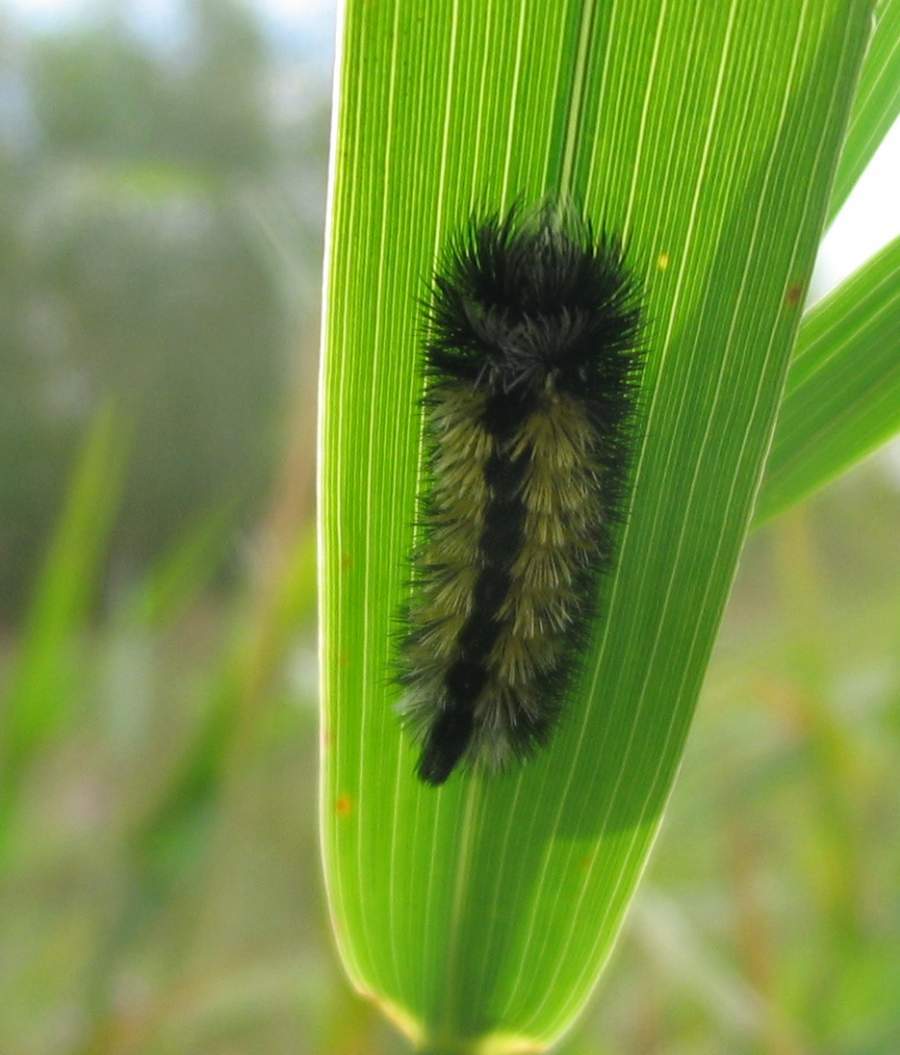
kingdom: Animalia
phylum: Arthropoda
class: Insecta
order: Lepidoptera
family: Erebidae
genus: Ctenucha
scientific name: Ctenucha virginica
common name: Virginia ctenucha moth
